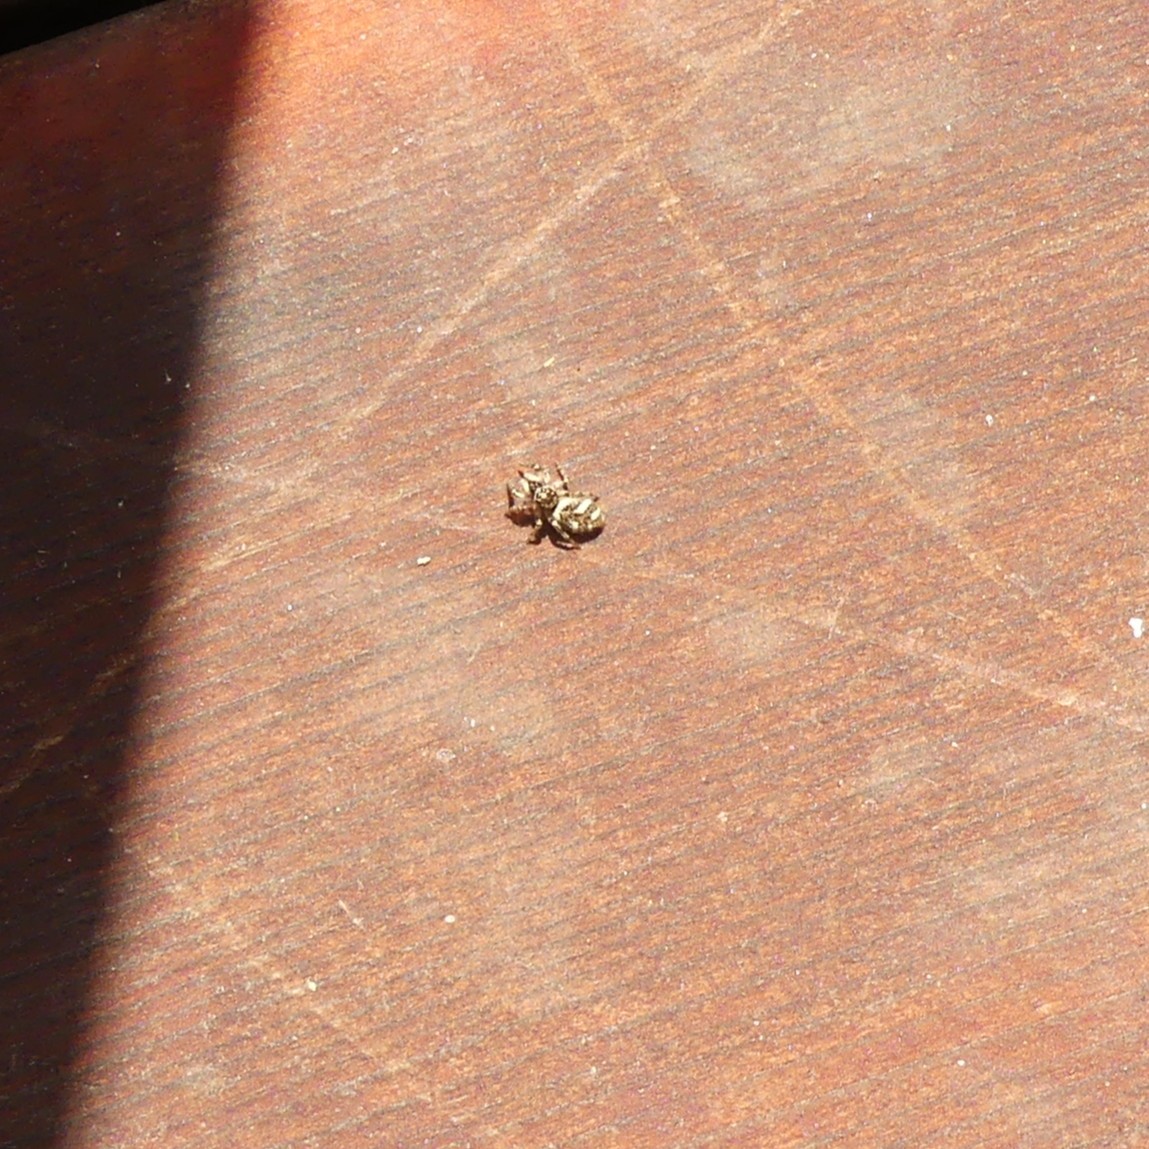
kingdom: Animalia
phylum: Arthropoda
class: Arachnida
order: Araneae
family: Salticidae
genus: Salticus
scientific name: Salticus scenicus
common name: Zebra jumper
